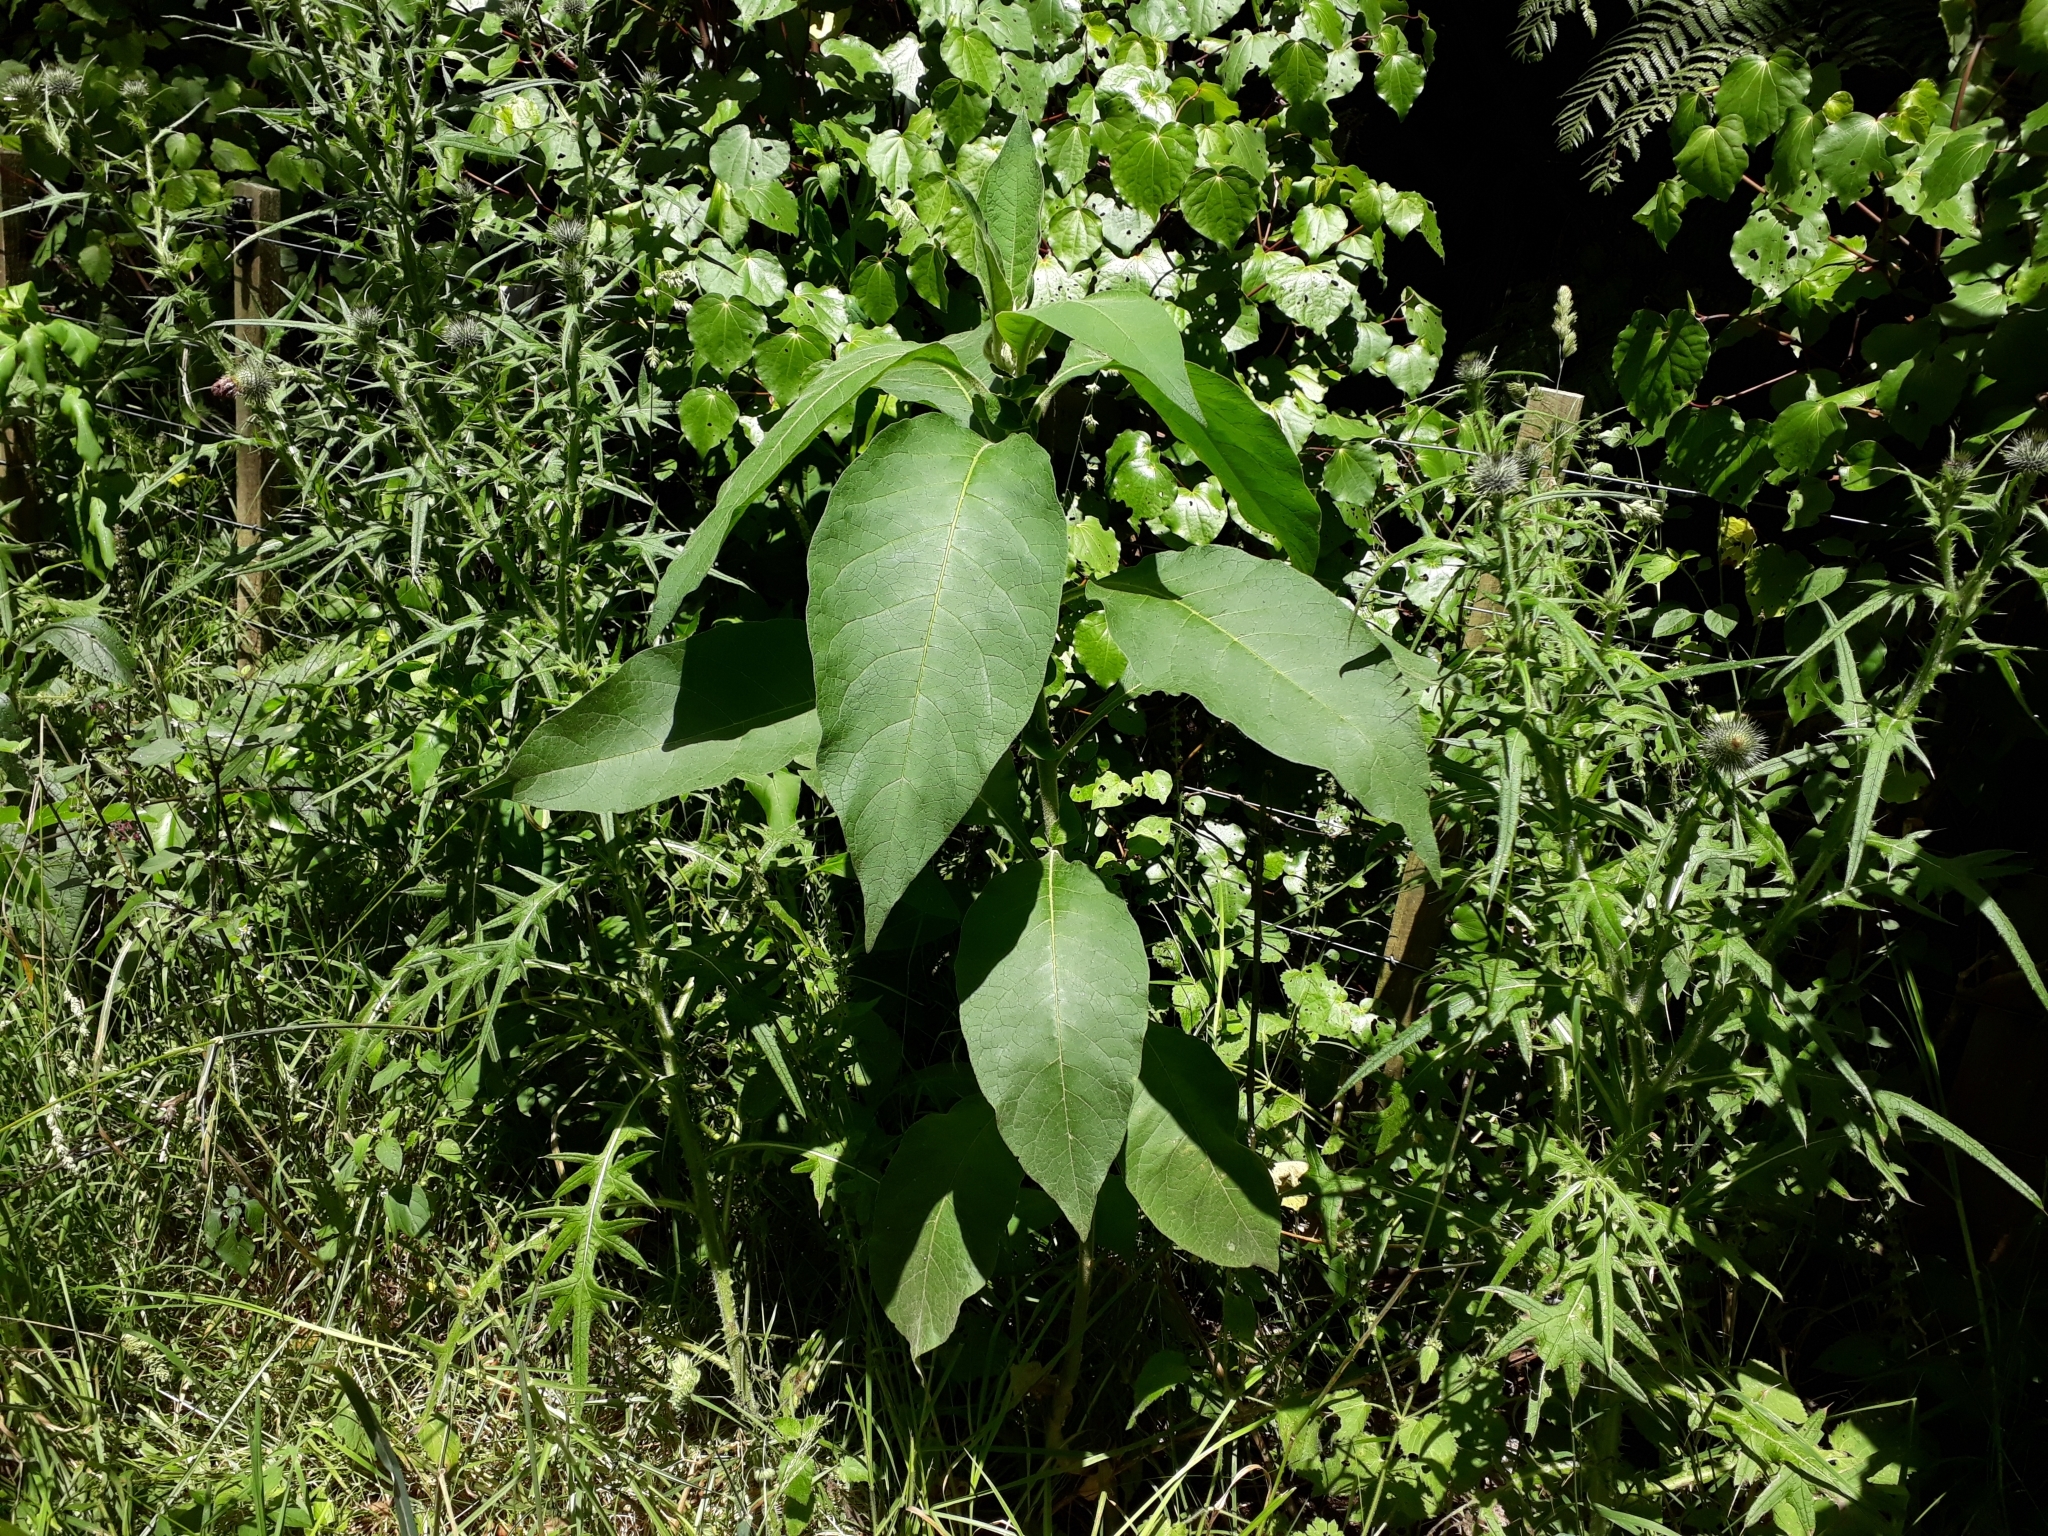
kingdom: Plantae
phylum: Tracheophyta
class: Magnoliopsida
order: Solanales
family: Solanaceae
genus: Solanum
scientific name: Solanum mauritianum
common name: Earleaf nightshade
